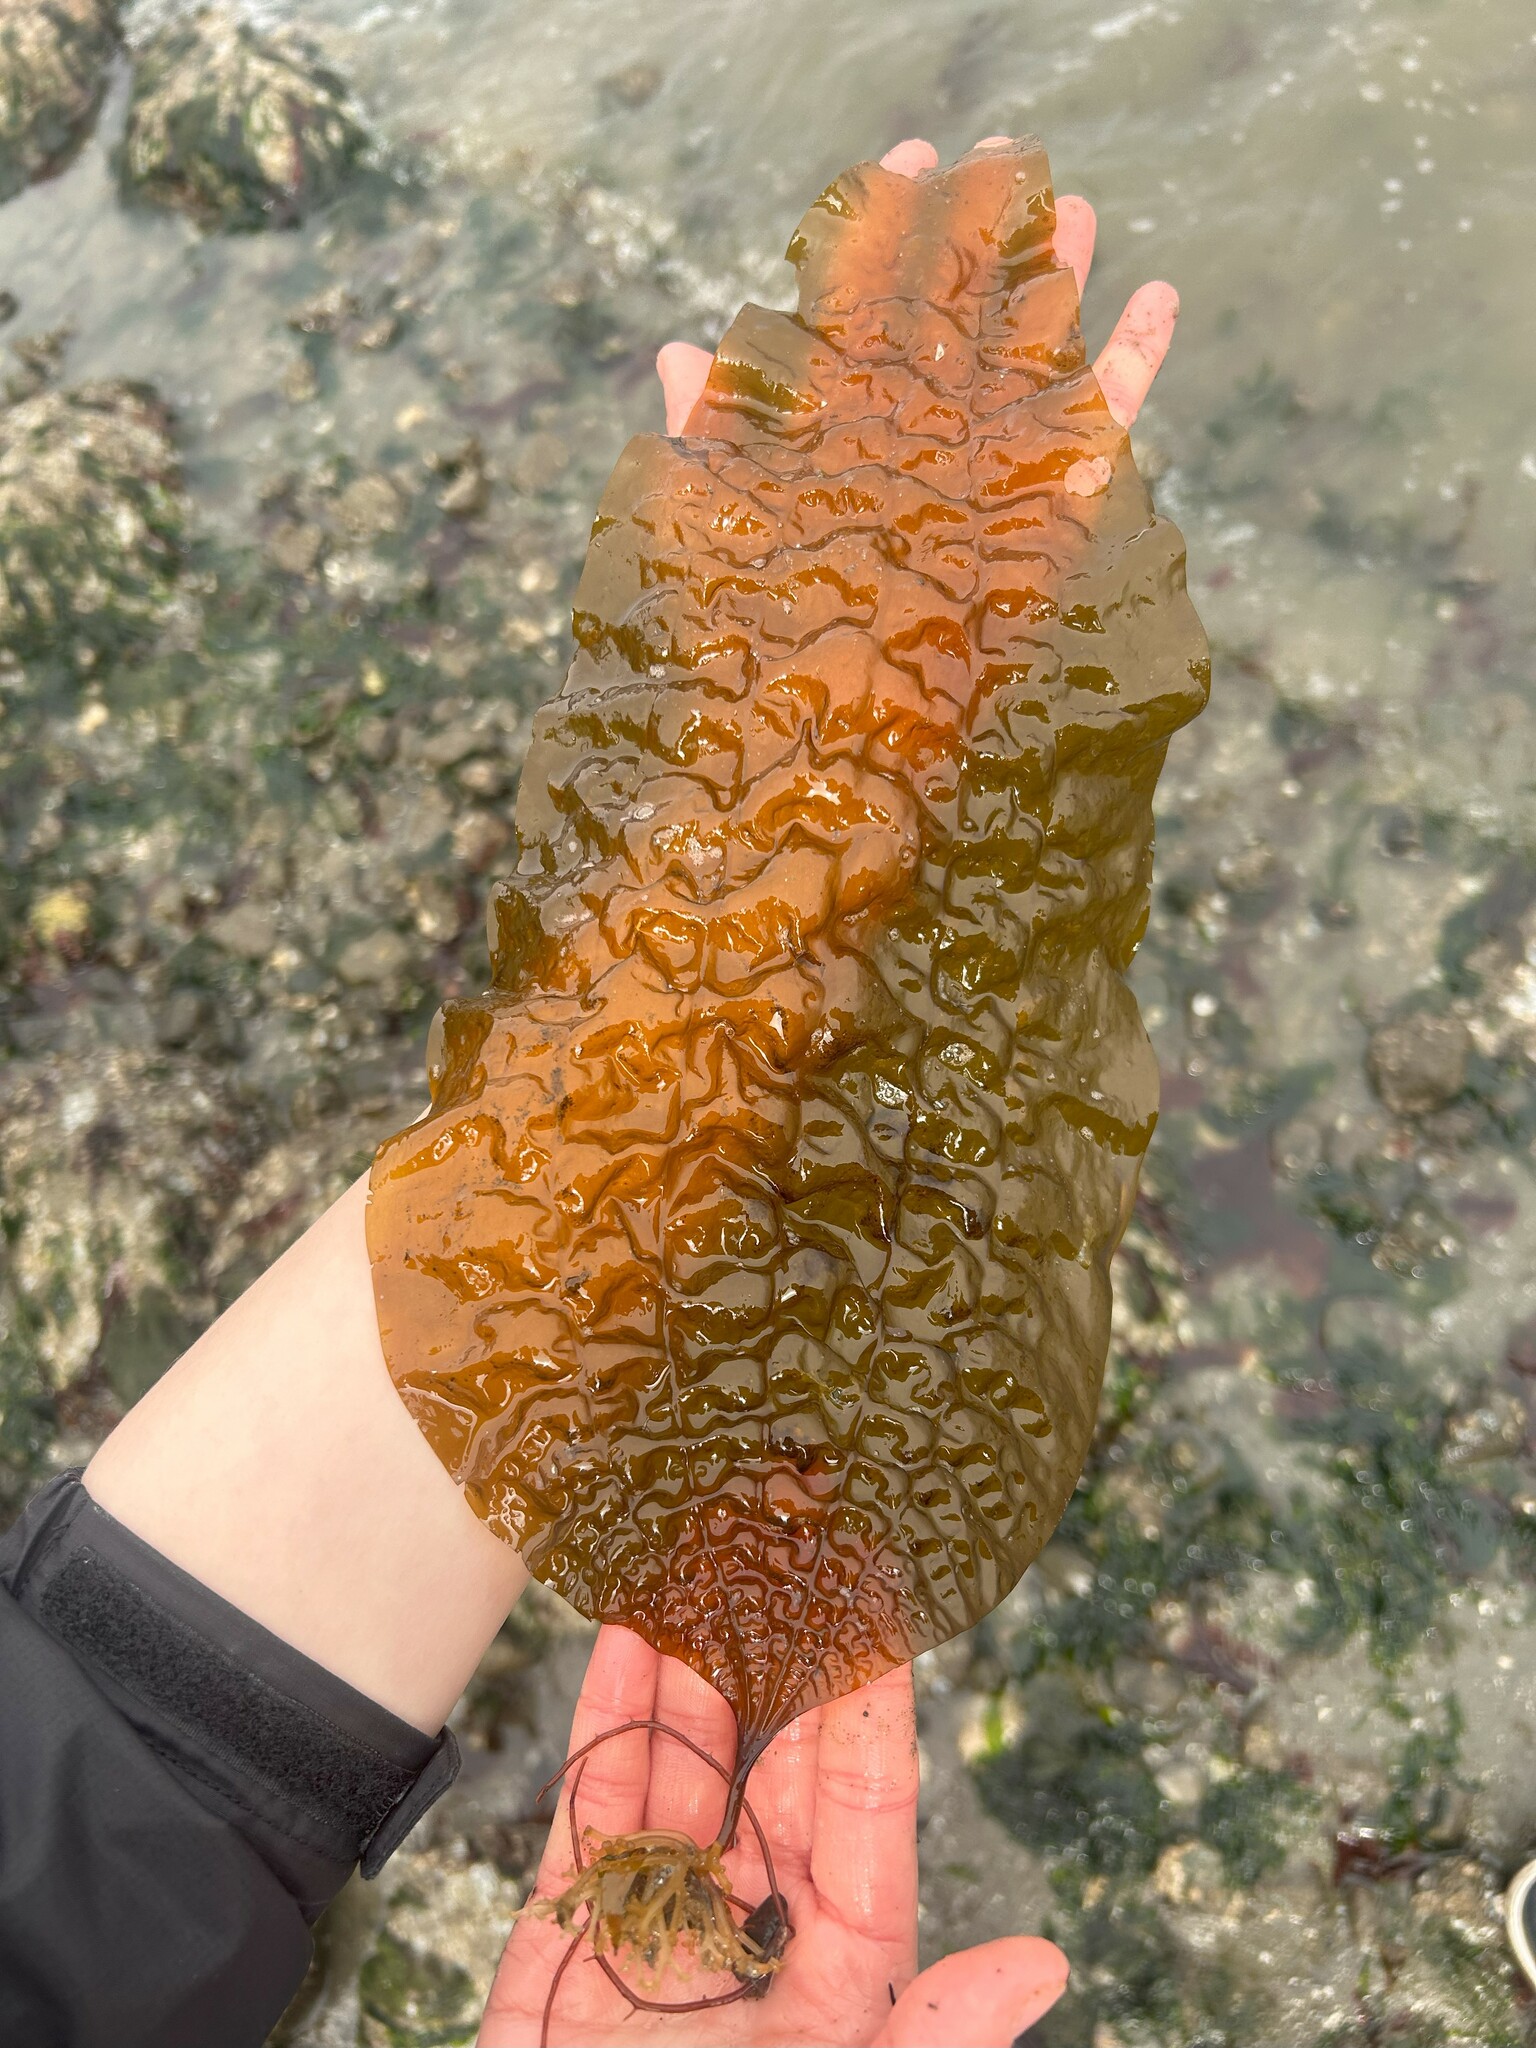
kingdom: Chromista
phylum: Ochrophyta
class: Phaeophyceae
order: Laminariales
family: Costariaceae
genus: Costaria
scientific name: Costaria costata
